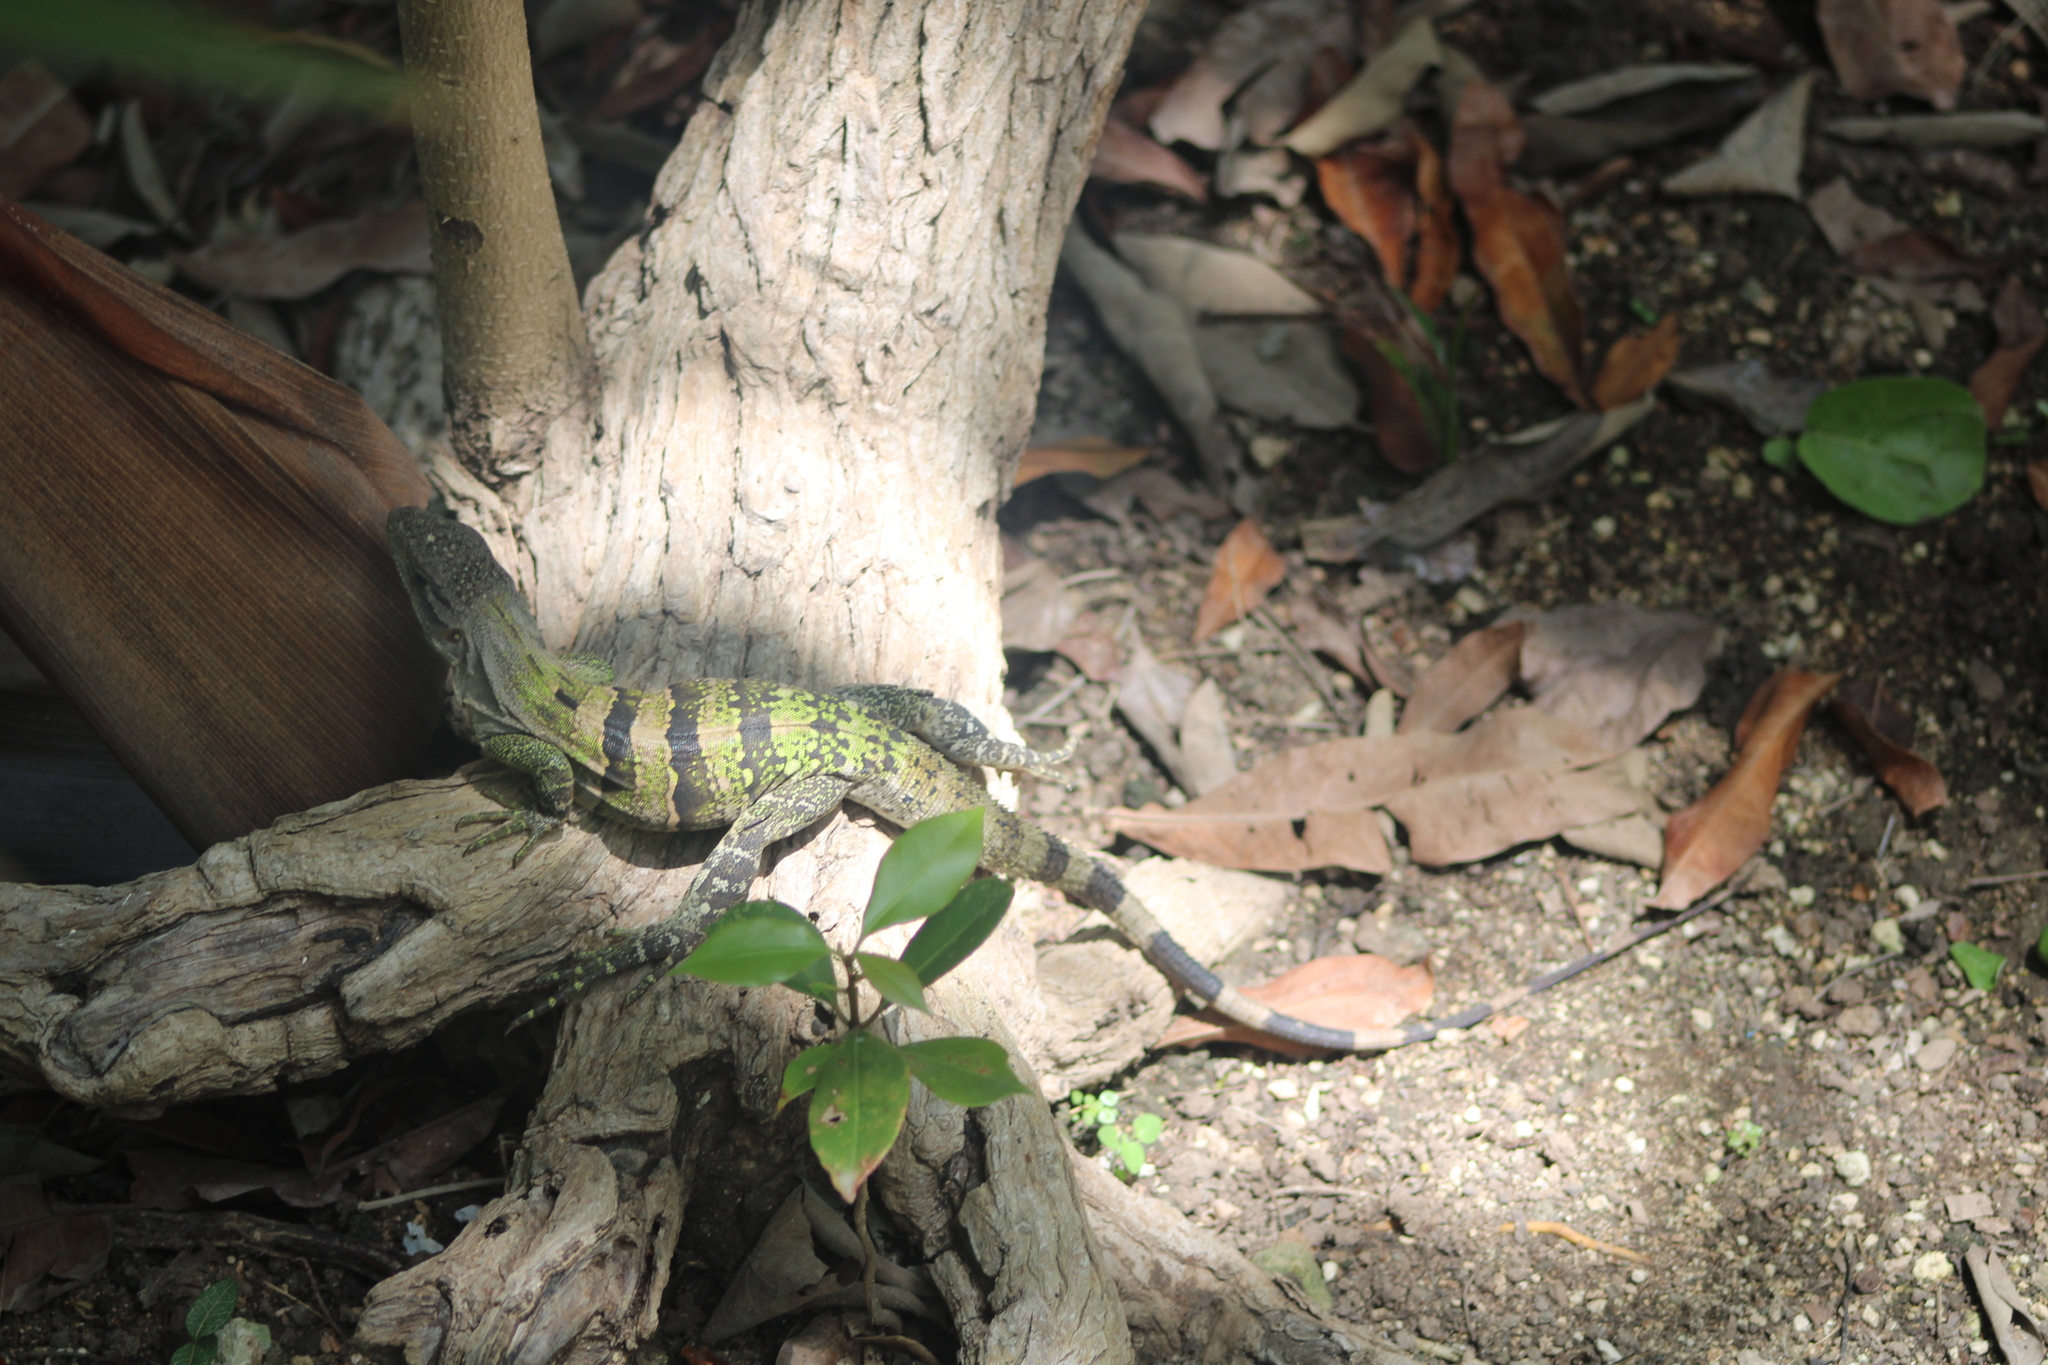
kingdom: Animalia
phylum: Chordata
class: Squamata
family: Iguanidae
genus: Ctenosaura
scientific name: Ctenosaura similis
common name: Black spiny-tailed iguana
